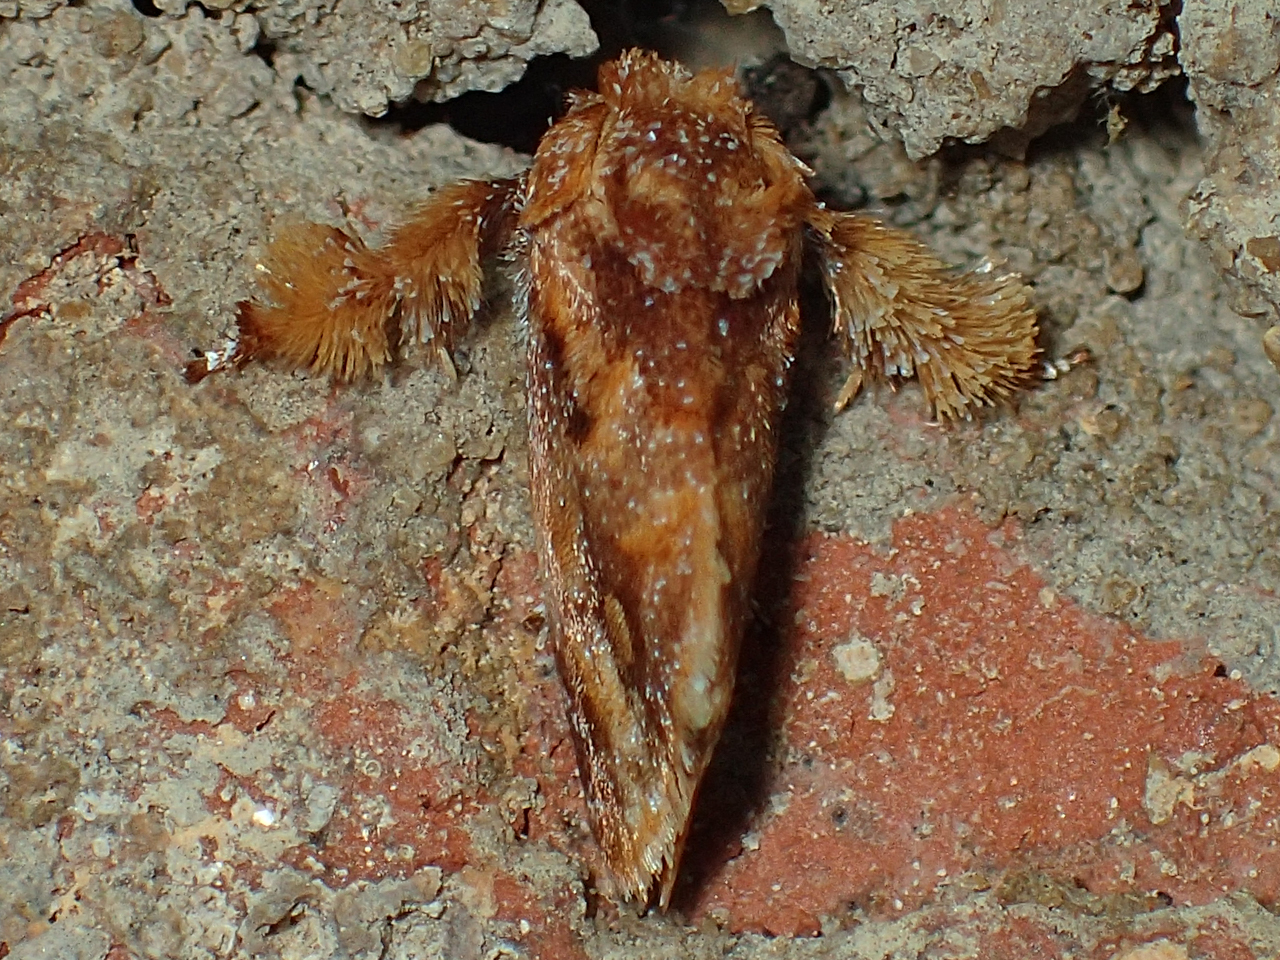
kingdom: Animalia
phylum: Arthropoda
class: Insecta
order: Lepidoptera
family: Limacodidae
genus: Isochaetes
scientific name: Isochaetes beutenmuelleri
